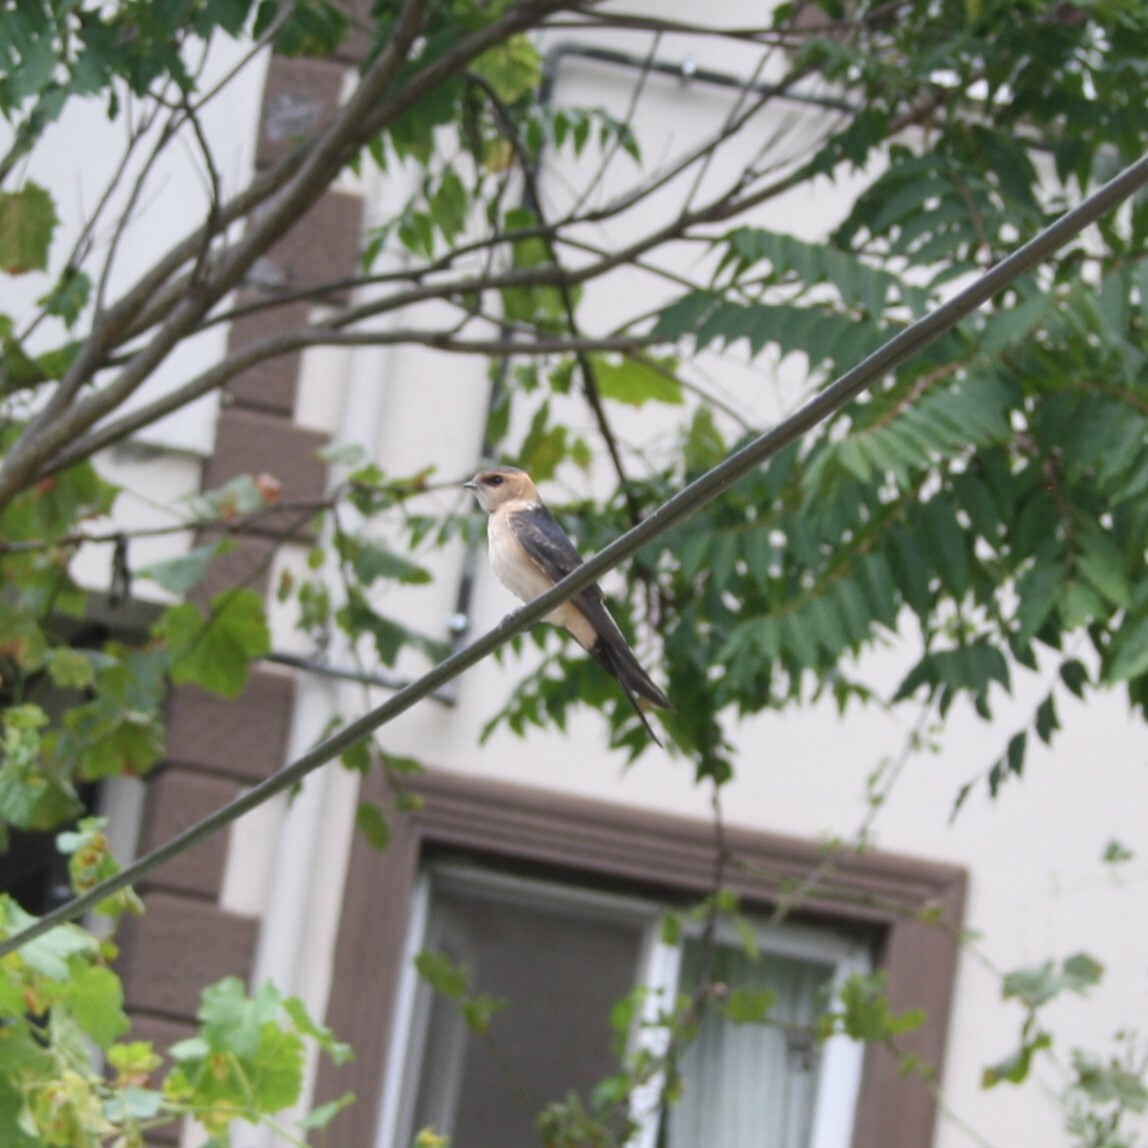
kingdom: Animalia
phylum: Chordata
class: Aves
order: Passeriformes
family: Hirundinidae
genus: Cecropis
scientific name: Cecropis daurica
